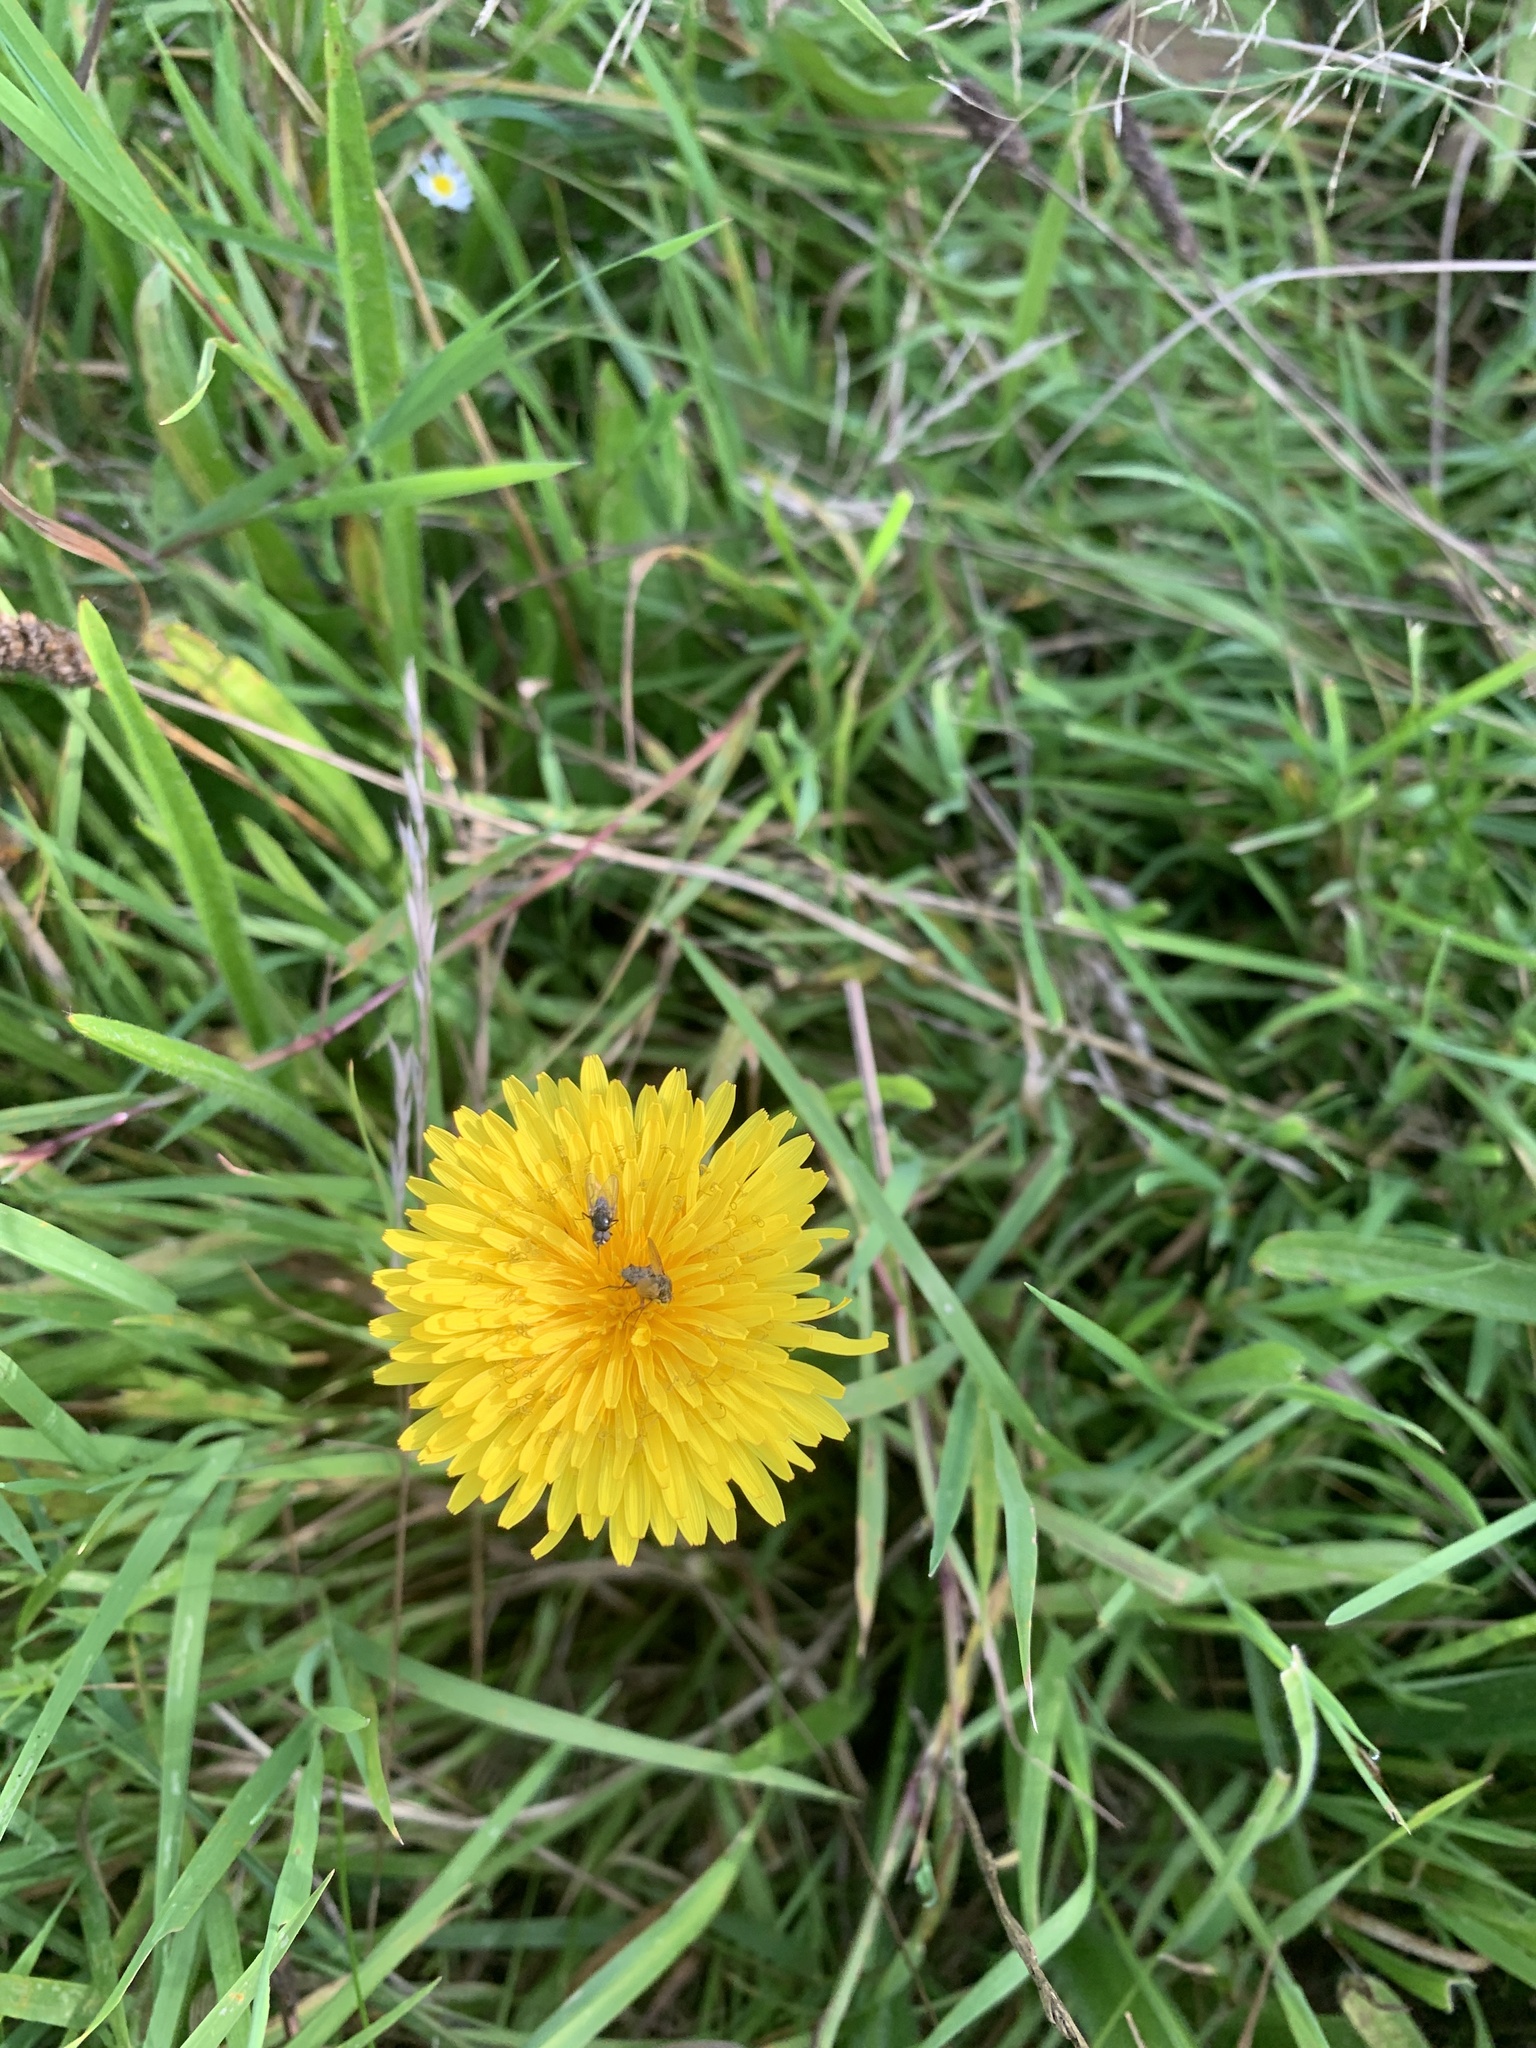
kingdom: Plantae
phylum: Tracheophyta
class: Magnoliopsida
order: Asterales
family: Asteraceae
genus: Taraxacum
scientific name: Taraxacum officinale
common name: Common dandelion
